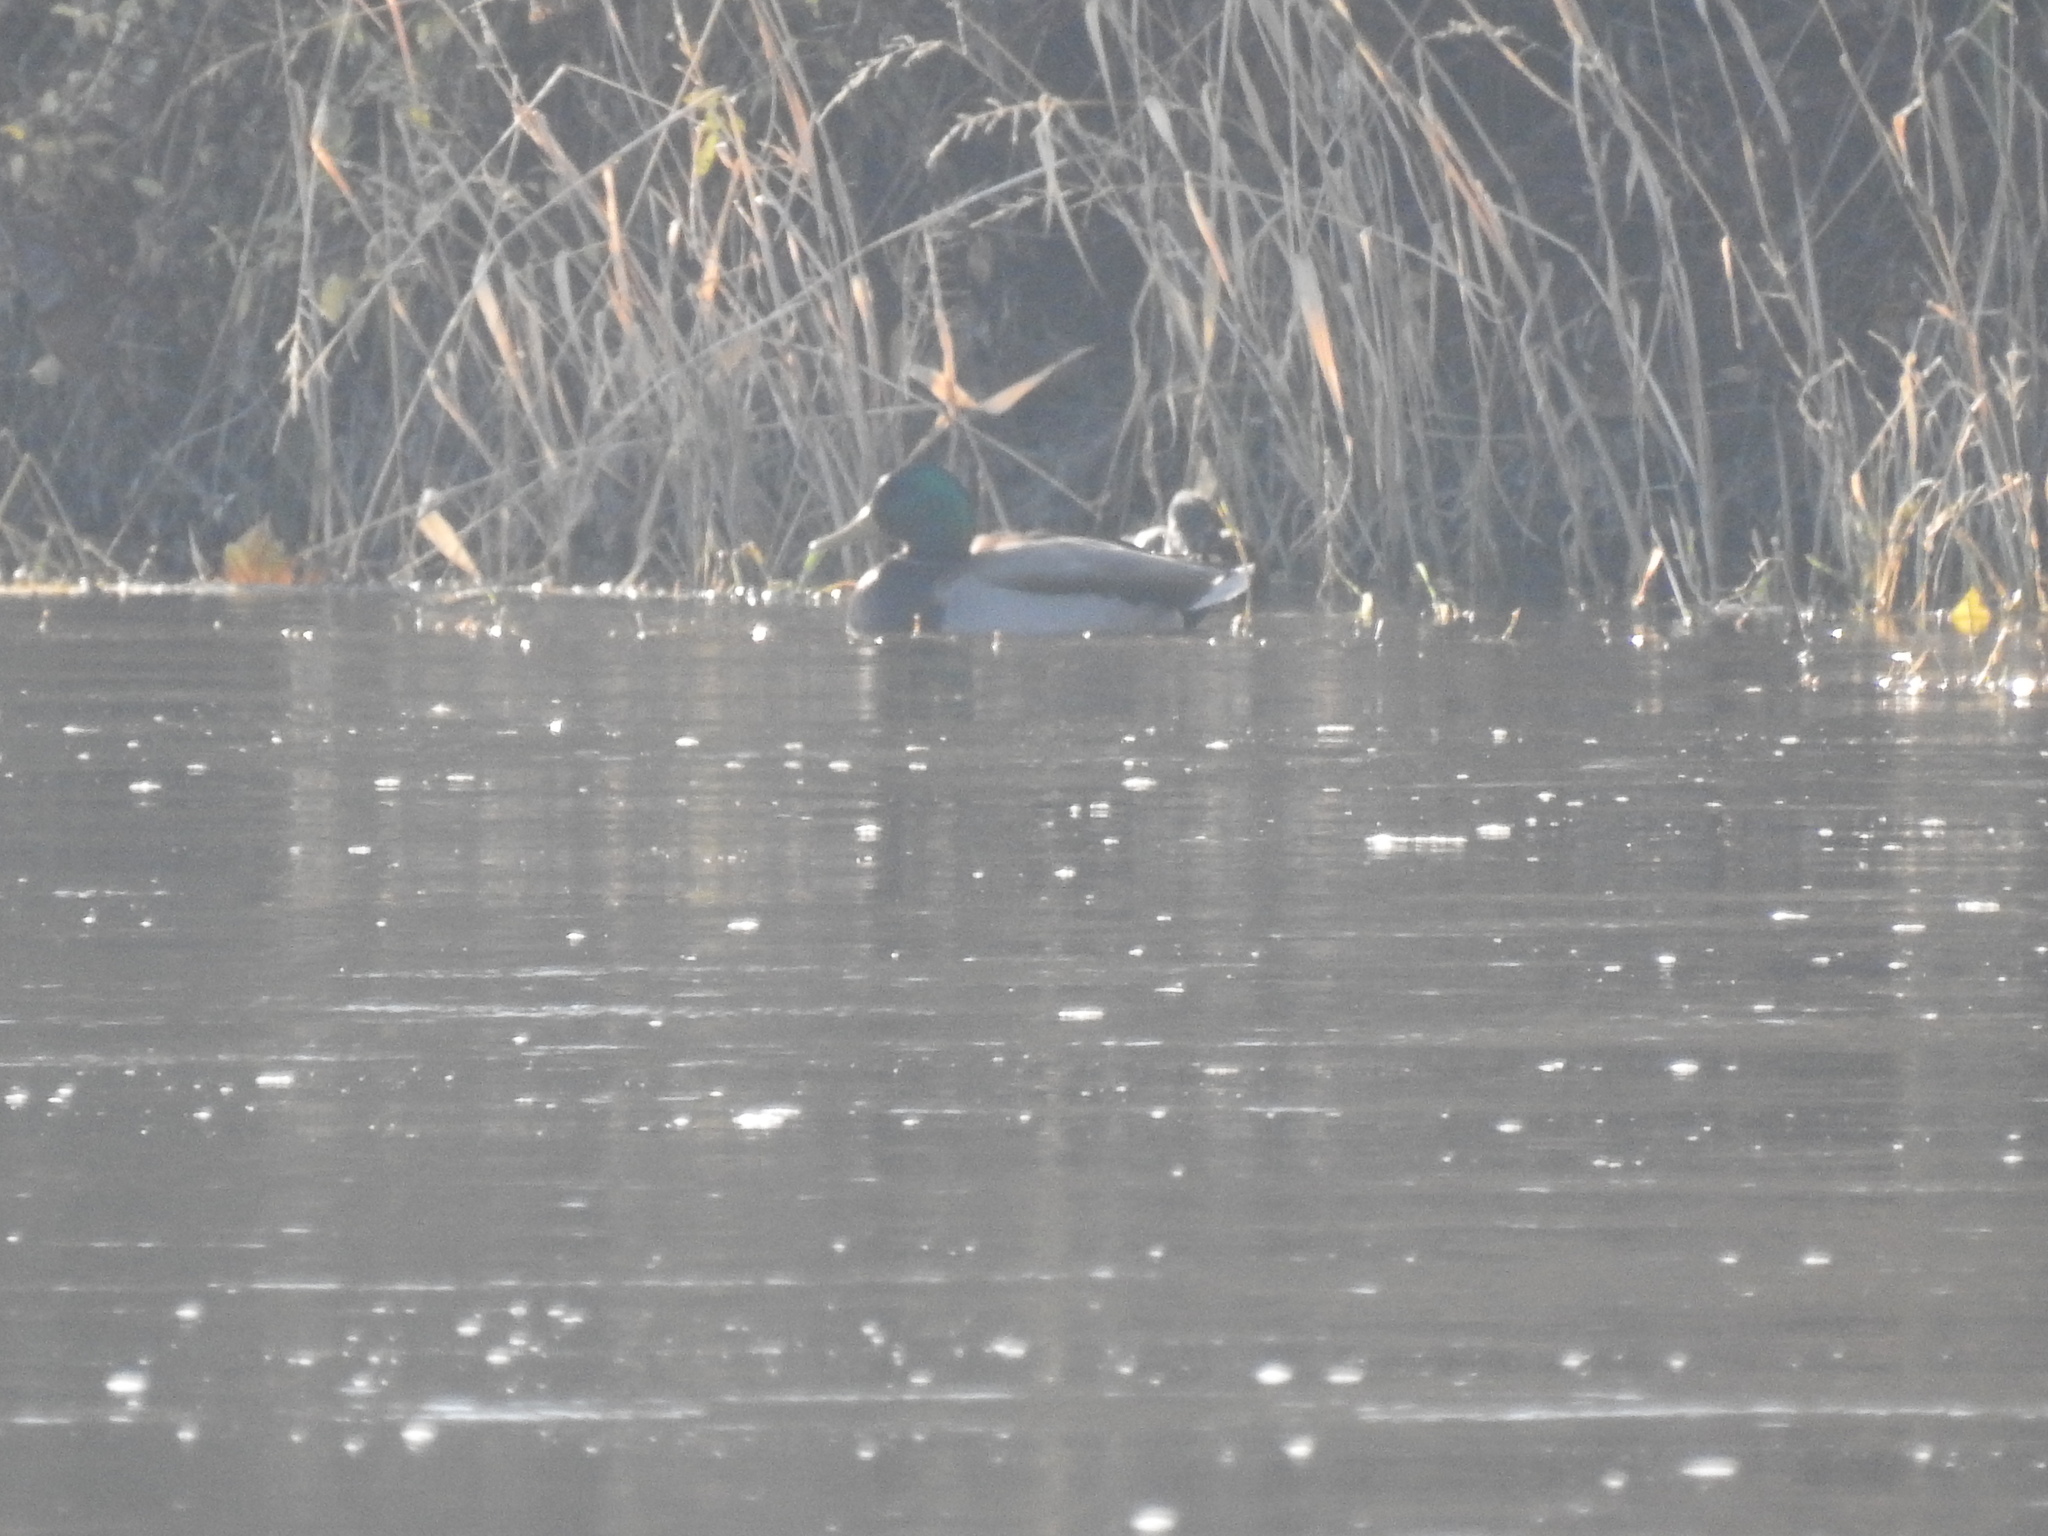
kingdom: Animalia
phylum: Chordata
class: Aves
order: Anseriformes
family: Anatidae
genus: Anas
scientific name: Anas platyrhynchos
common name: Mallard
